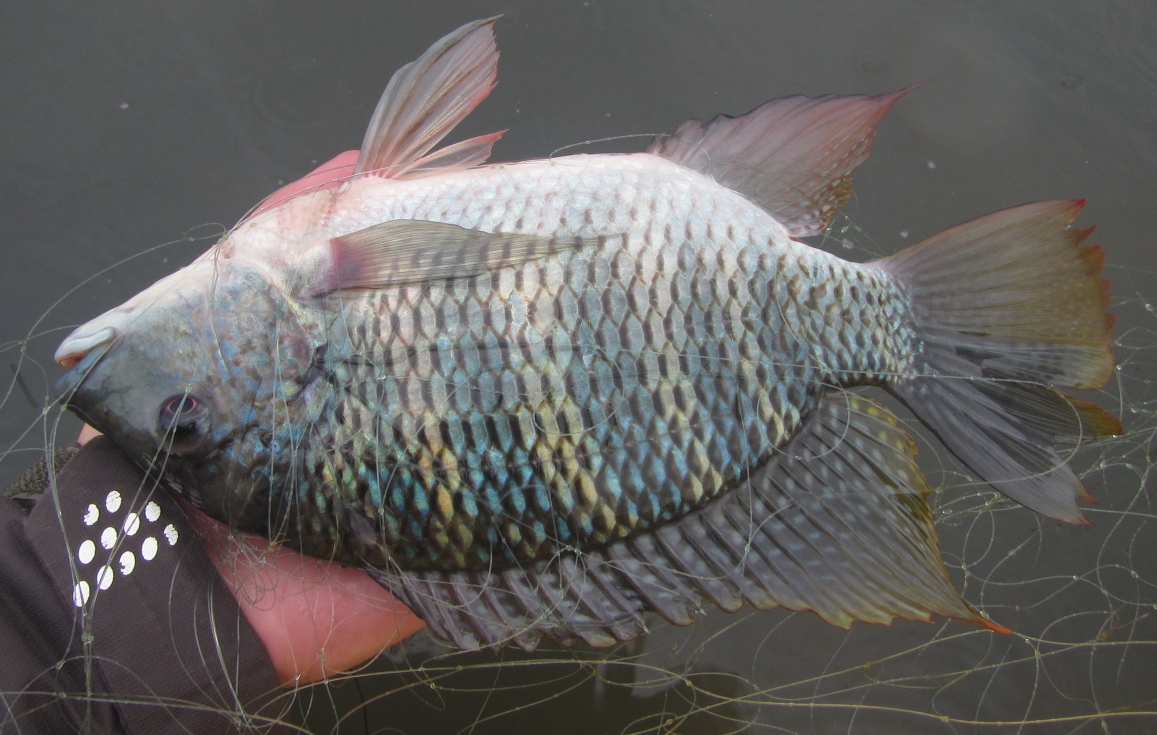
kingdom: Animalia
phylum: Chordata
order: Perciformes
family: Cichlidae
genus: Coptodon
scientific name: Coptodon rendalli
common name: Redbreast tilapia
